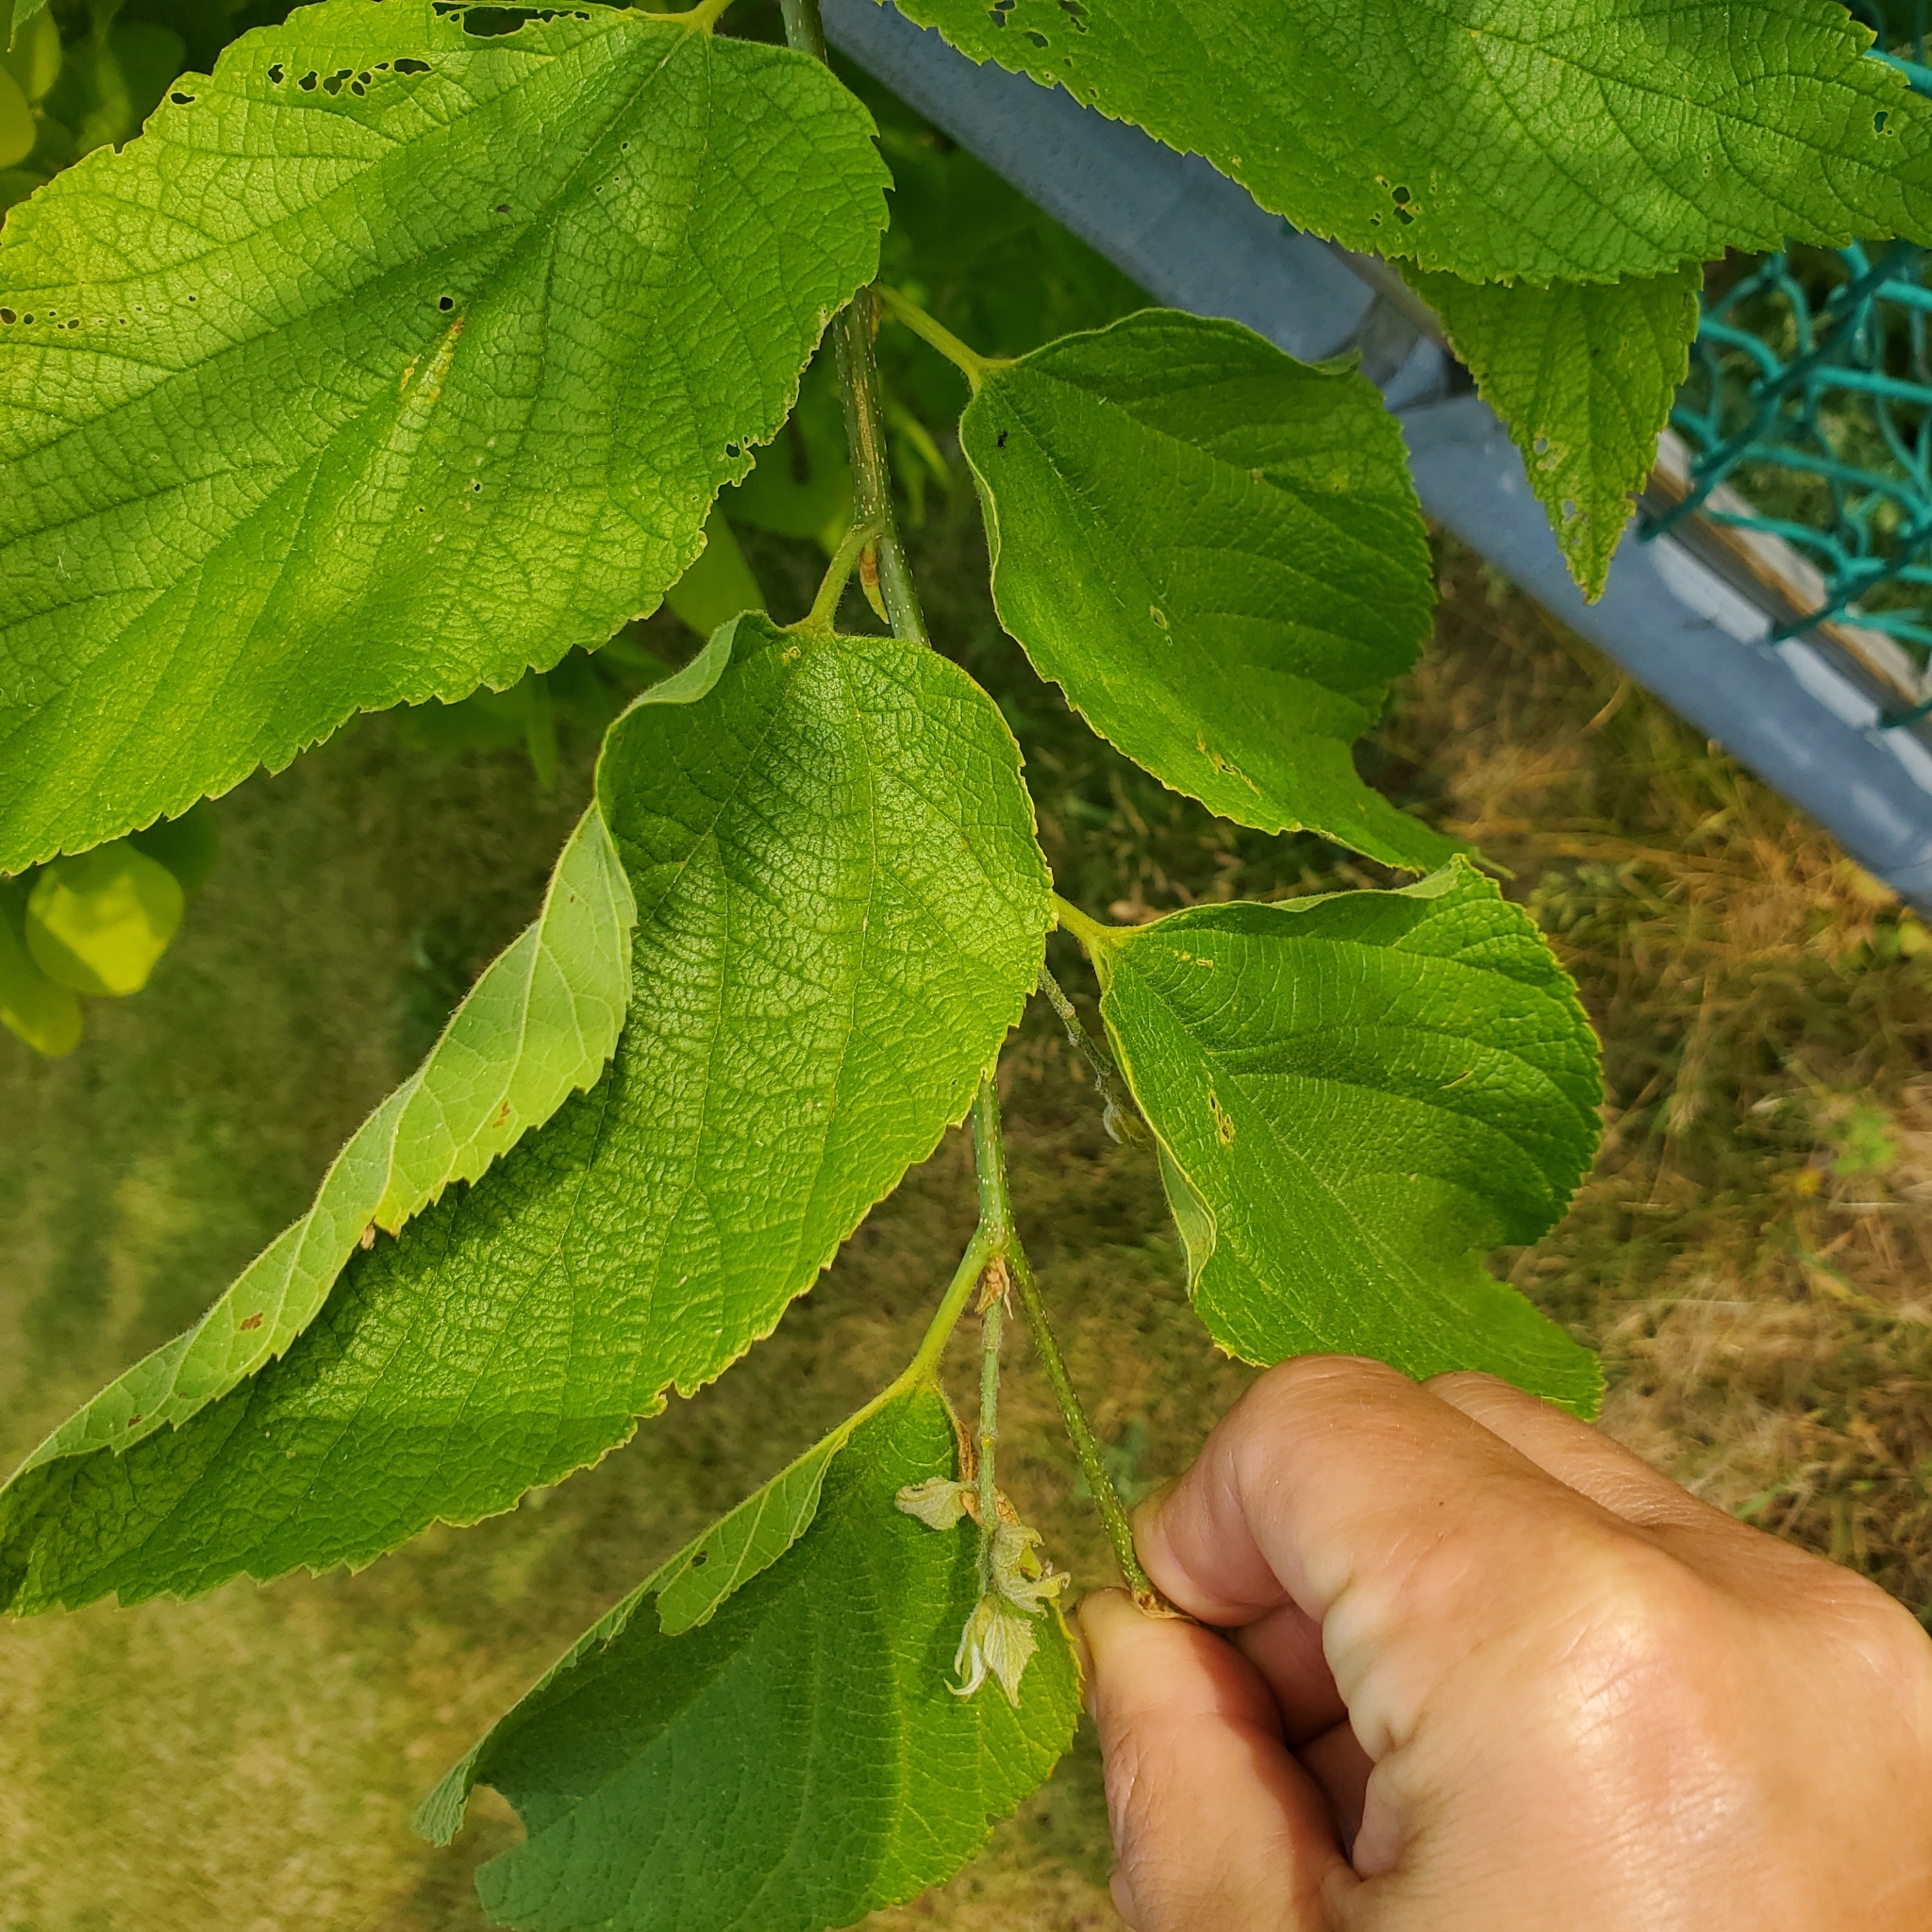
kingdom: Plantae
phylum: Tracheophyta
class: Magnoliopsida
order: Rosales
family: Cannabaceae
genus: Celtis
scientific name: Celtis occidentalis
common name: Common hackberry
